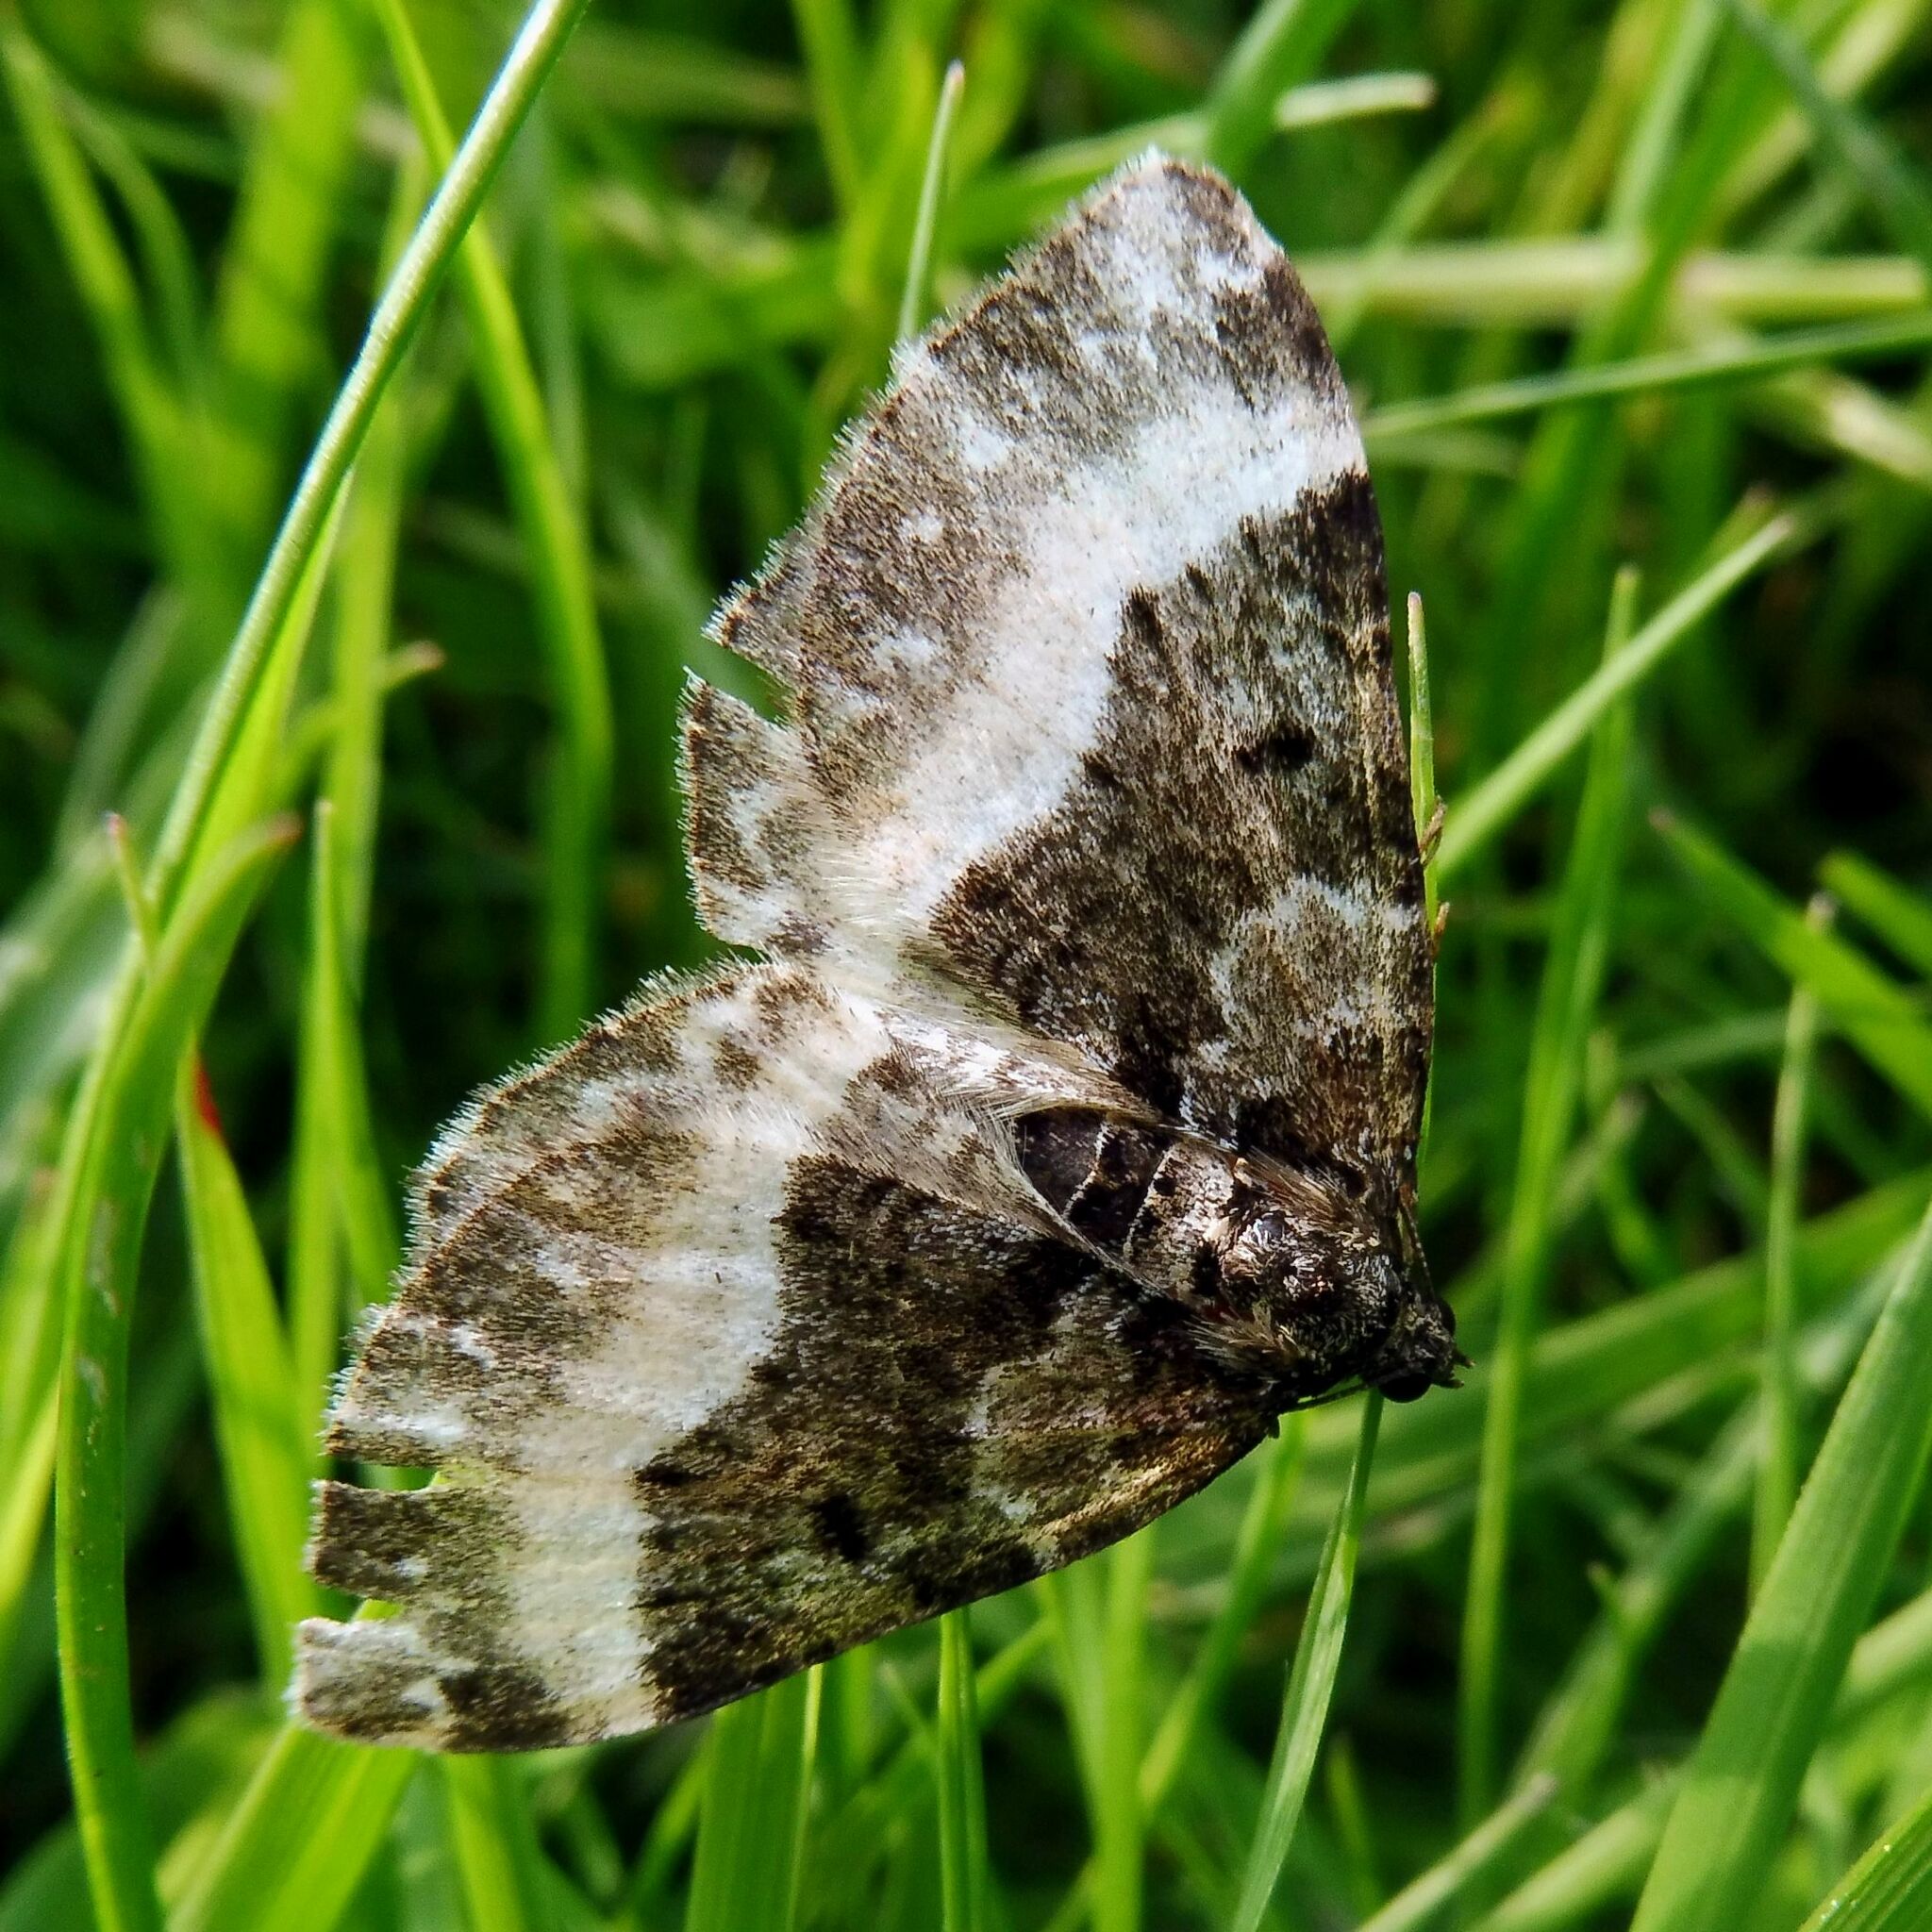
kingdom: Animalia
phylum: Arthropoda
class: Insecta
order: Lepidoptera
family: Geometridae
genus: Euphyia
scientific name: Euphyia unangulata
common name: Sharp-angled carpet
